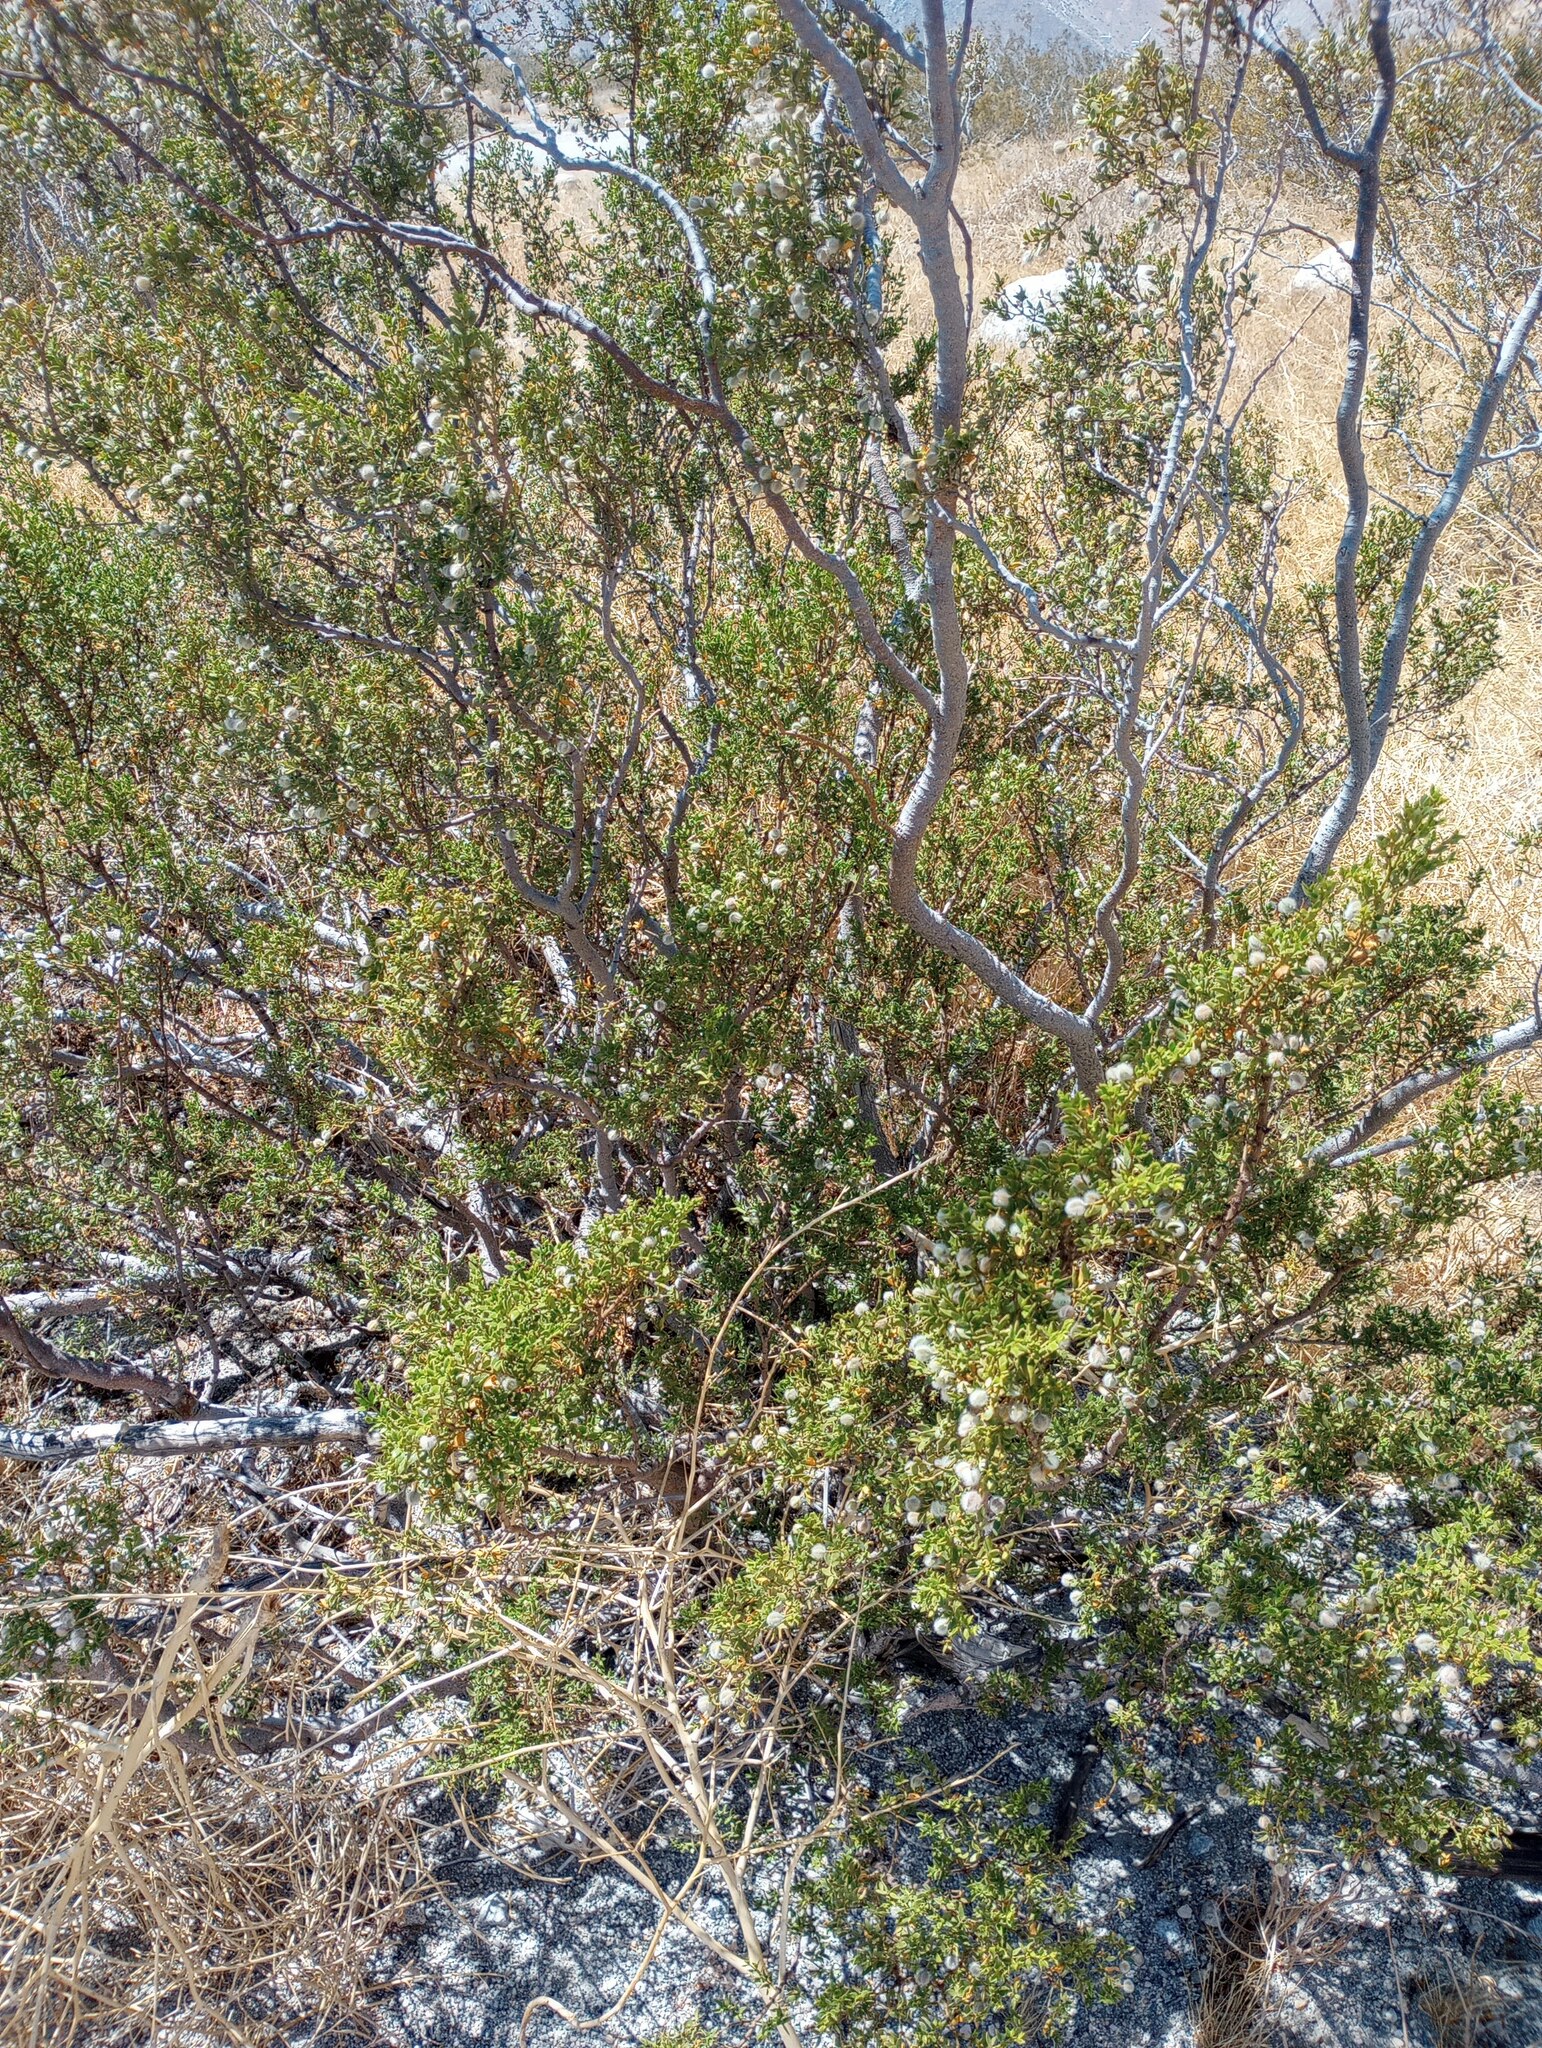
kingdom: Plantae
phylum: Tracheophyta
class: Magnoliopsida
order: Zygophyllales
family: Zygophyllaceae
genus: Larrea
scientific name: Larrea tridentata
